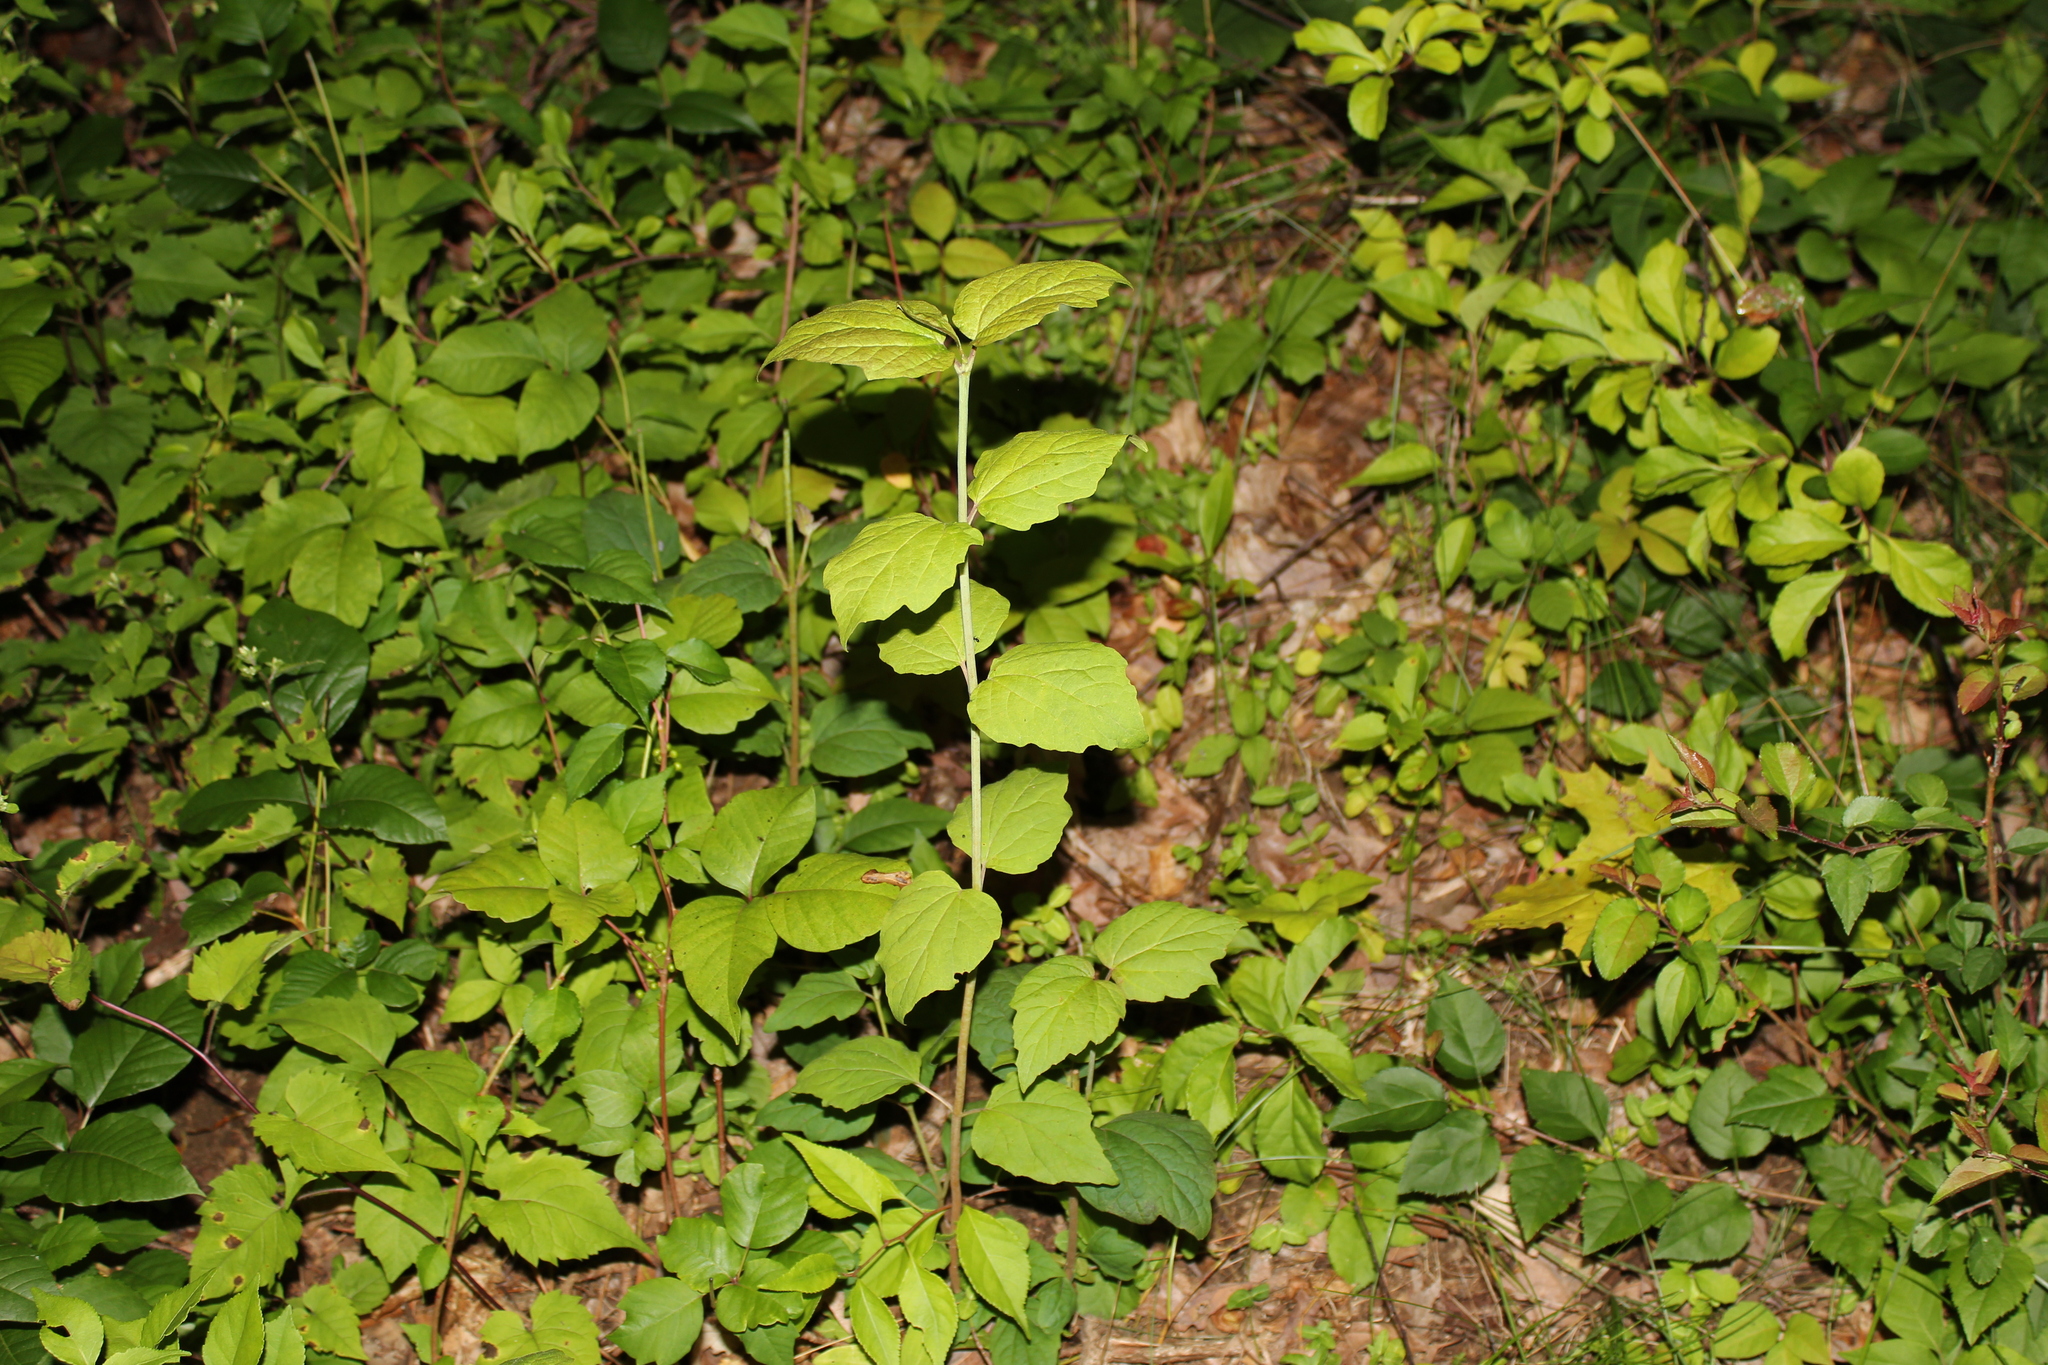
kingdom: Plantae
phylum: Tracheophyta
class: Magnoliopsida
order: Ranunculales
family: Ranunculaceae
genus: Clematis
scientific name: Clematis virginiana
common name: Virgin's-bower
